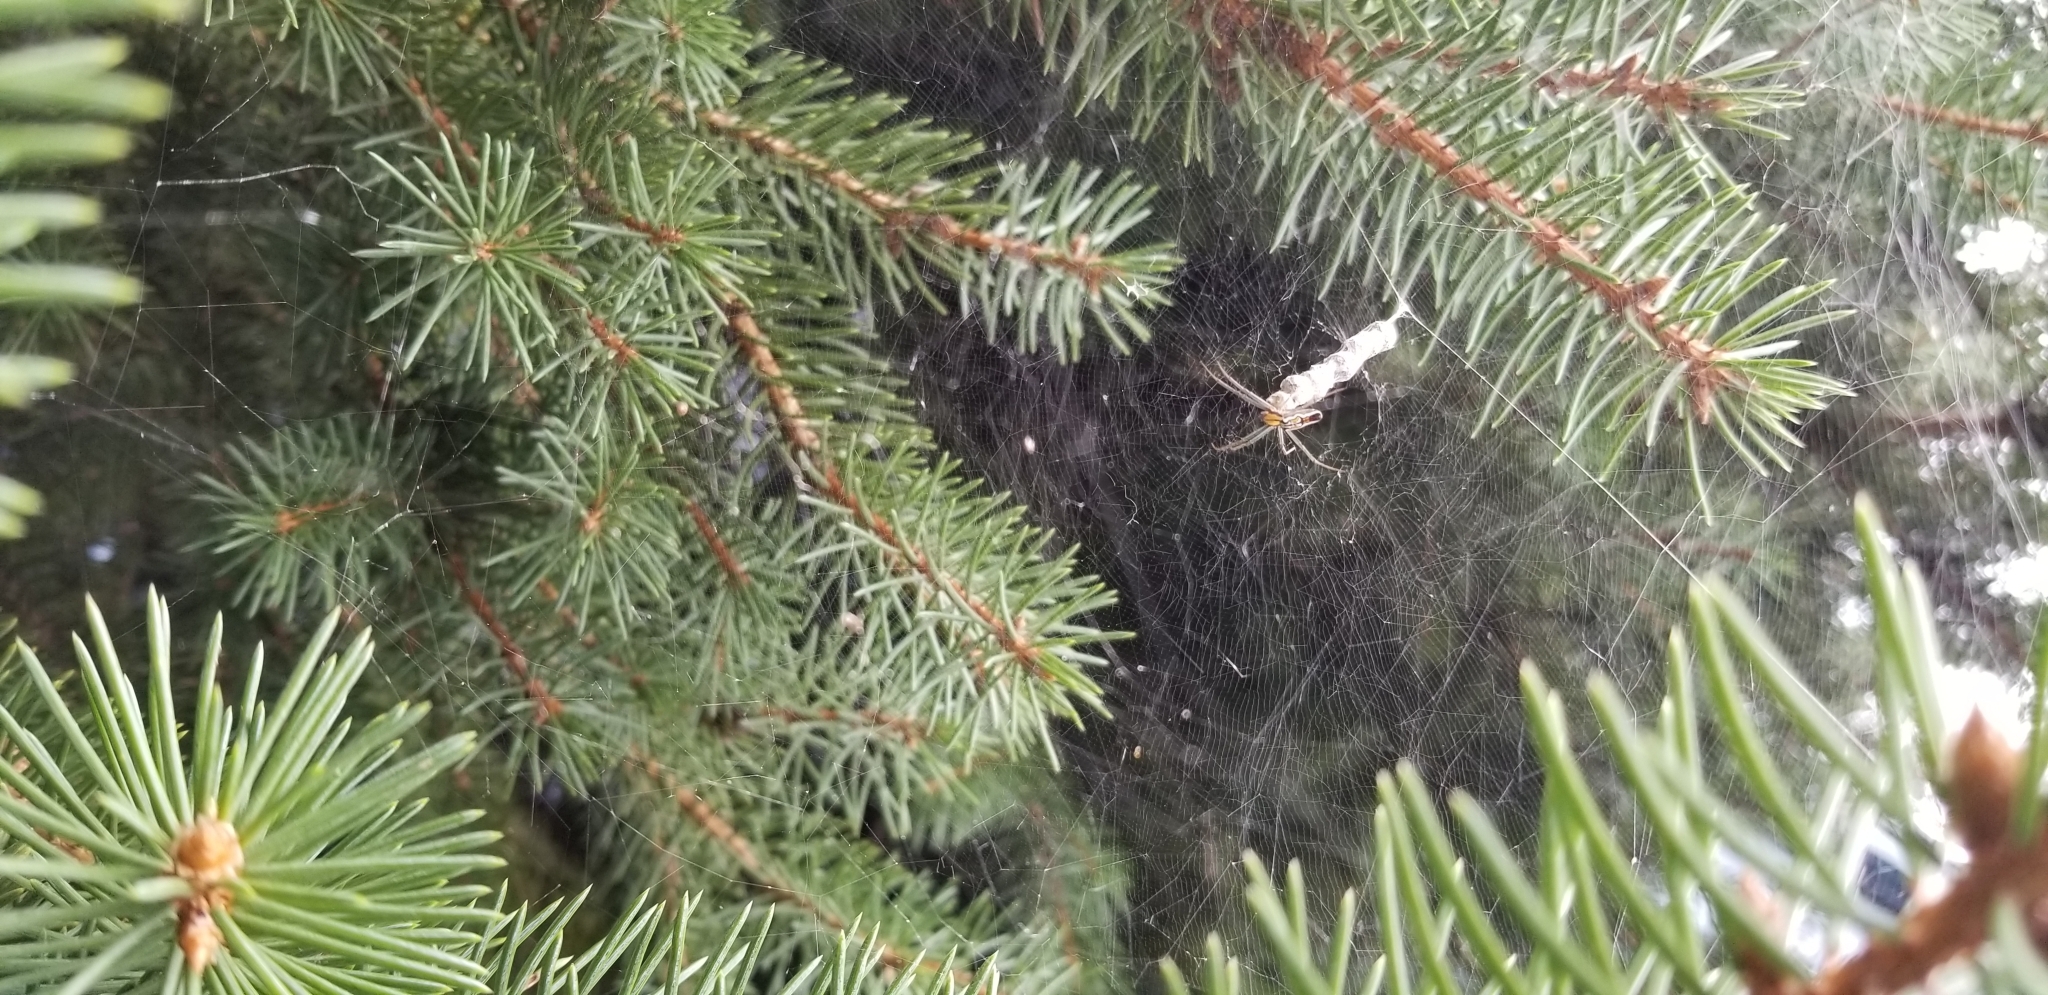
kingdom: Animalia
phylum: Arthropoda
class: Arachnida
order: Araneae
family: Araneidae
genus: Mecynogea
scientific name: Mecynogea lemniscata
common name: Orb weavers
